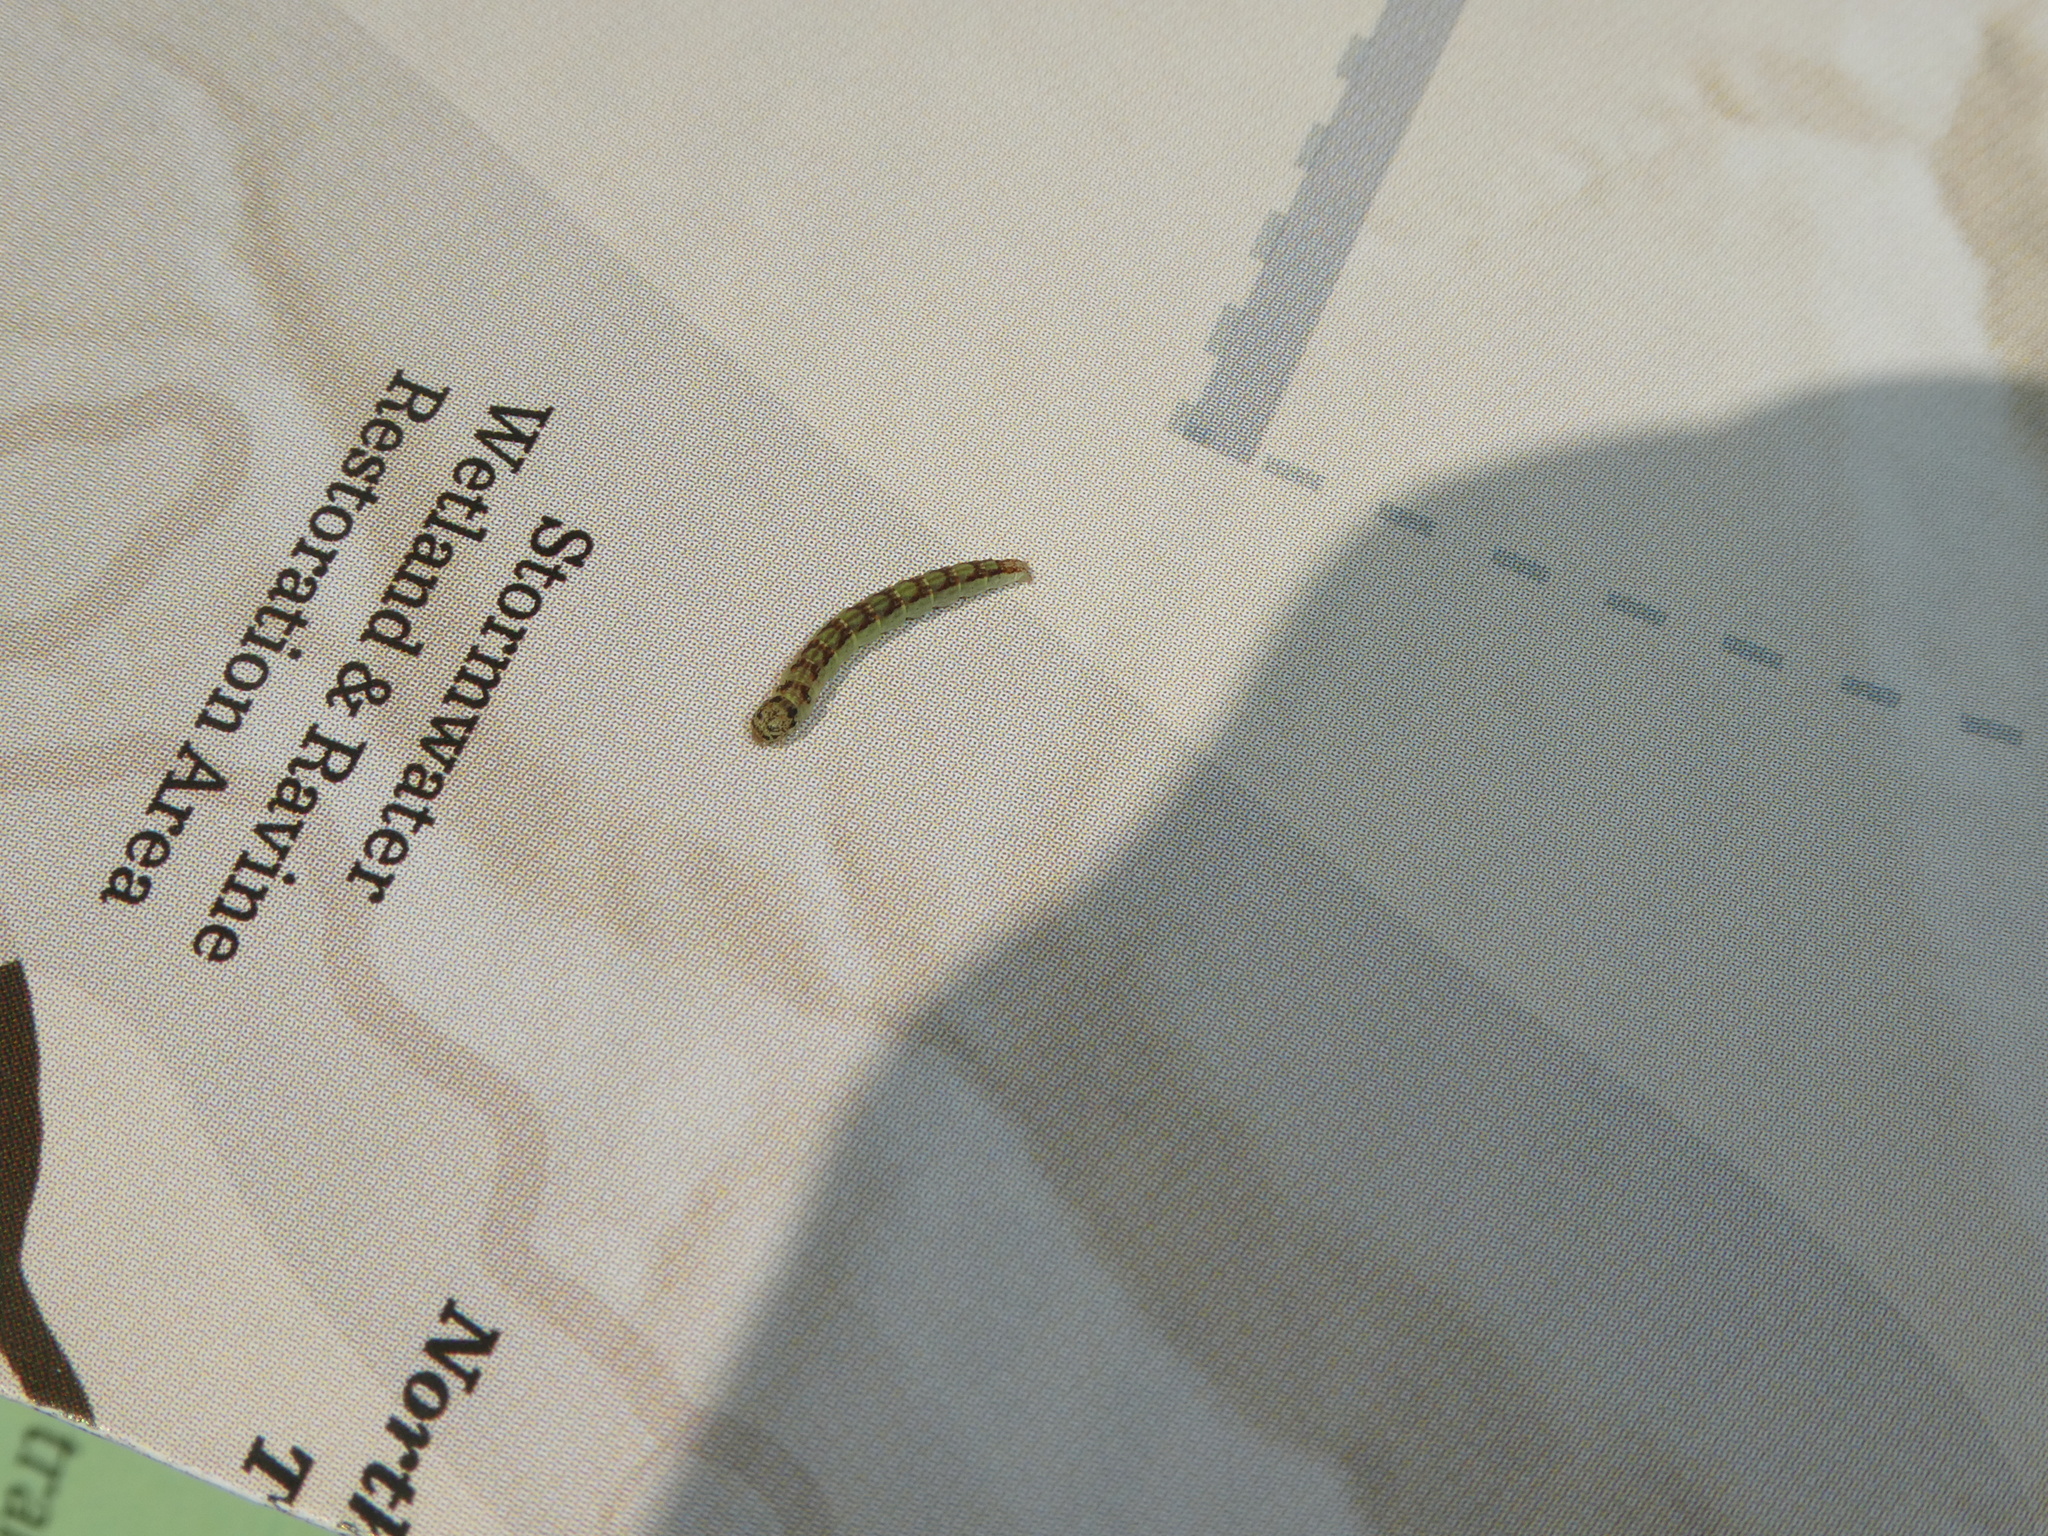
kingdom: Animalia
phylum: Arthropoda
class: Insecta
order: Lepidoptera
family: Pyralidae
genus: Oreana
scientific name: Oreana unicolorella
